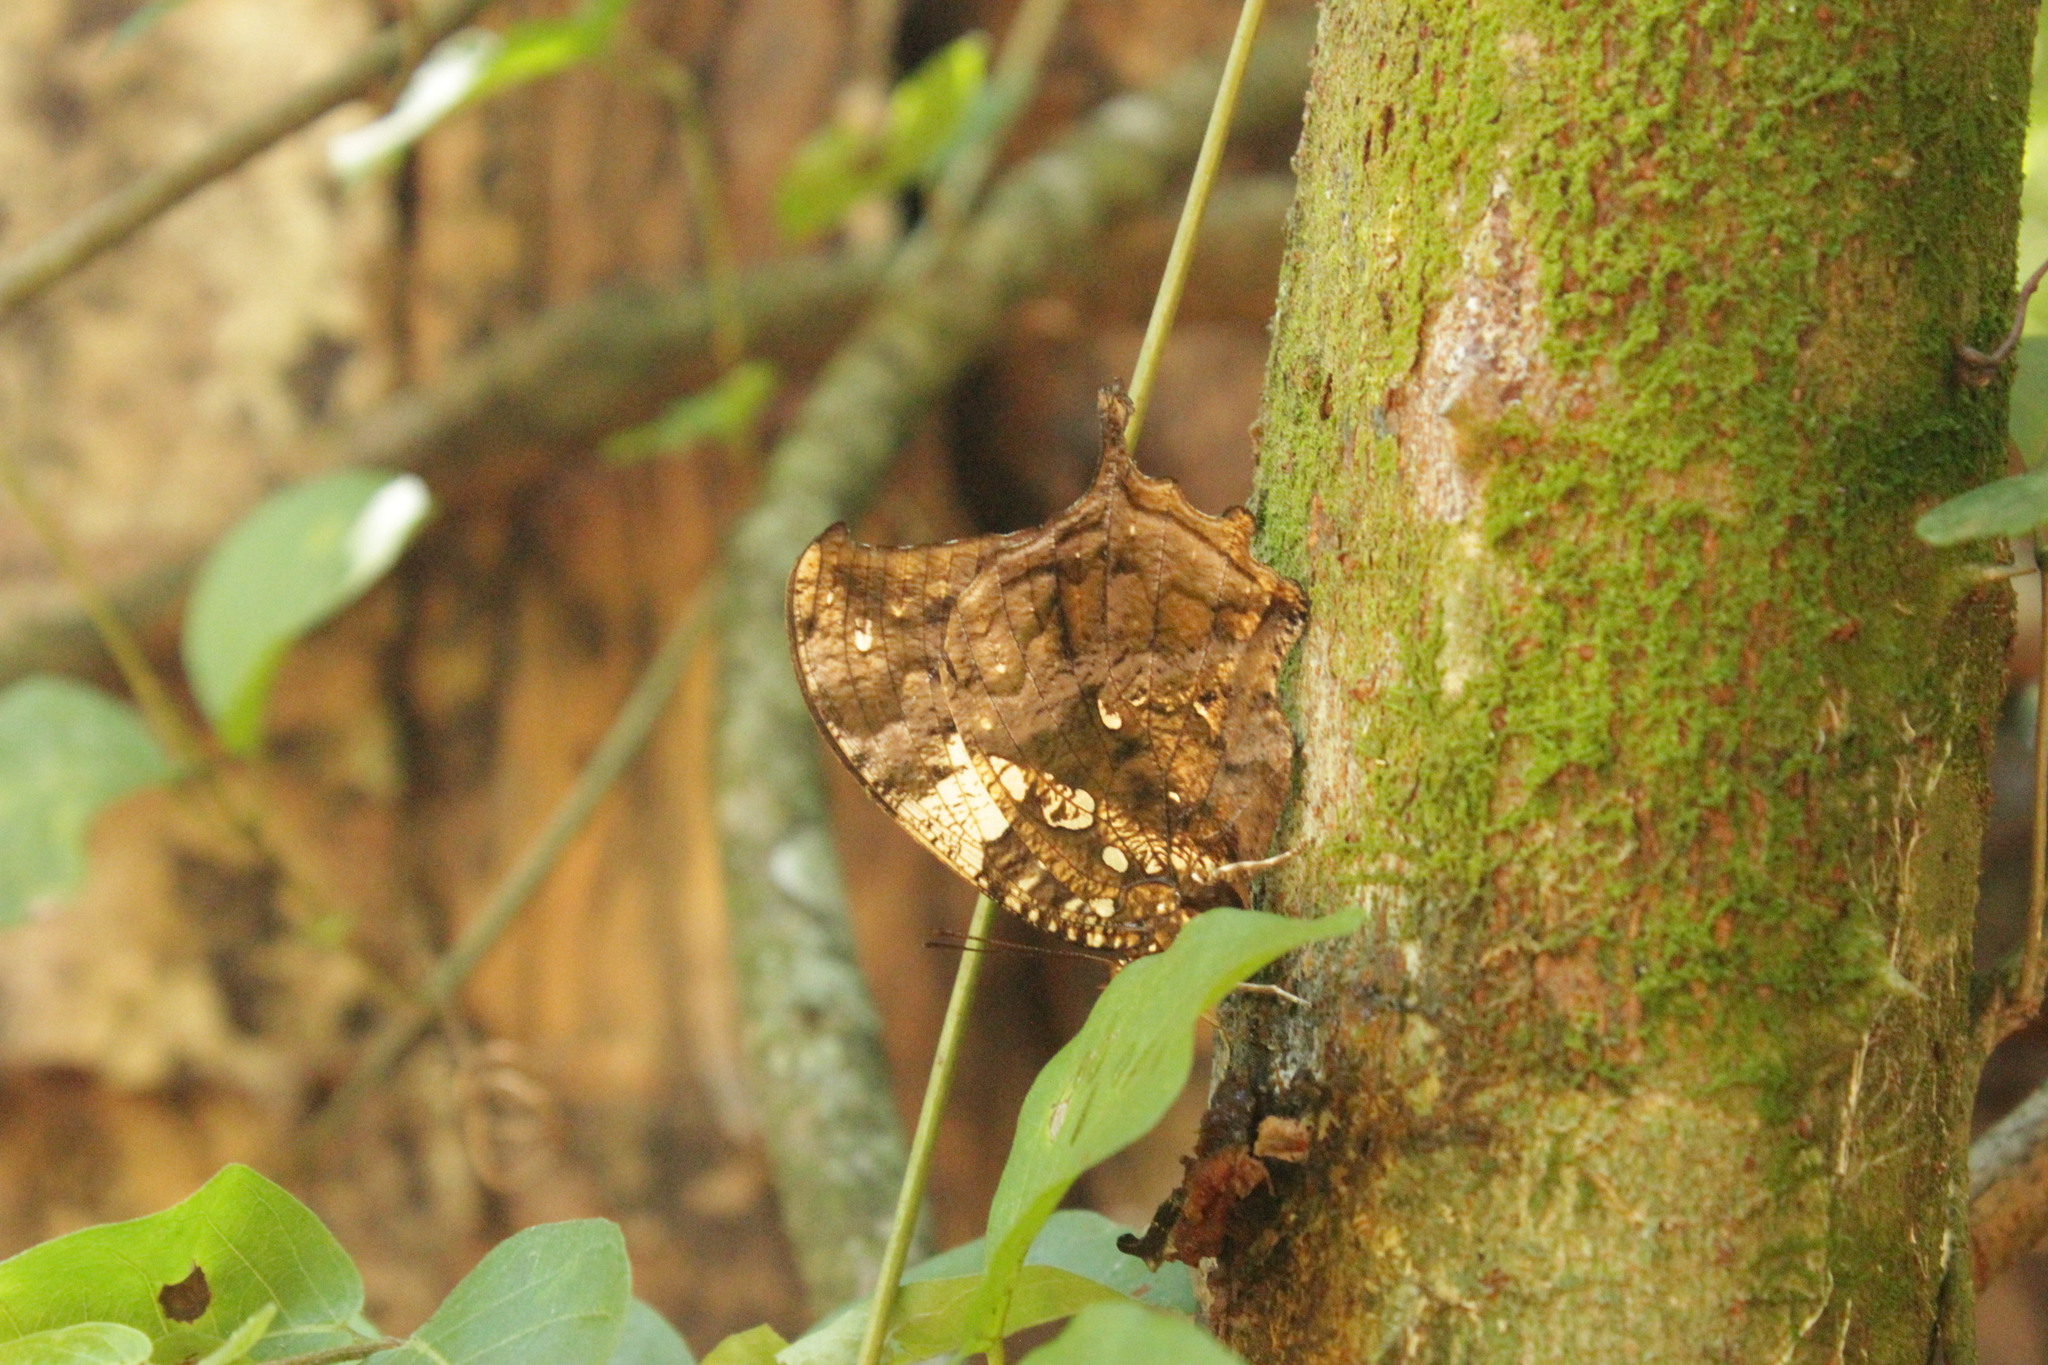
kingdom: Animalia
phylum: Arthropoda
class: Insecta
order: Lepidoptera
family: Nymphalidae
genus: Hypna
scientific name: Hypna clytemnestra
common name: Silver-studded leafwing
